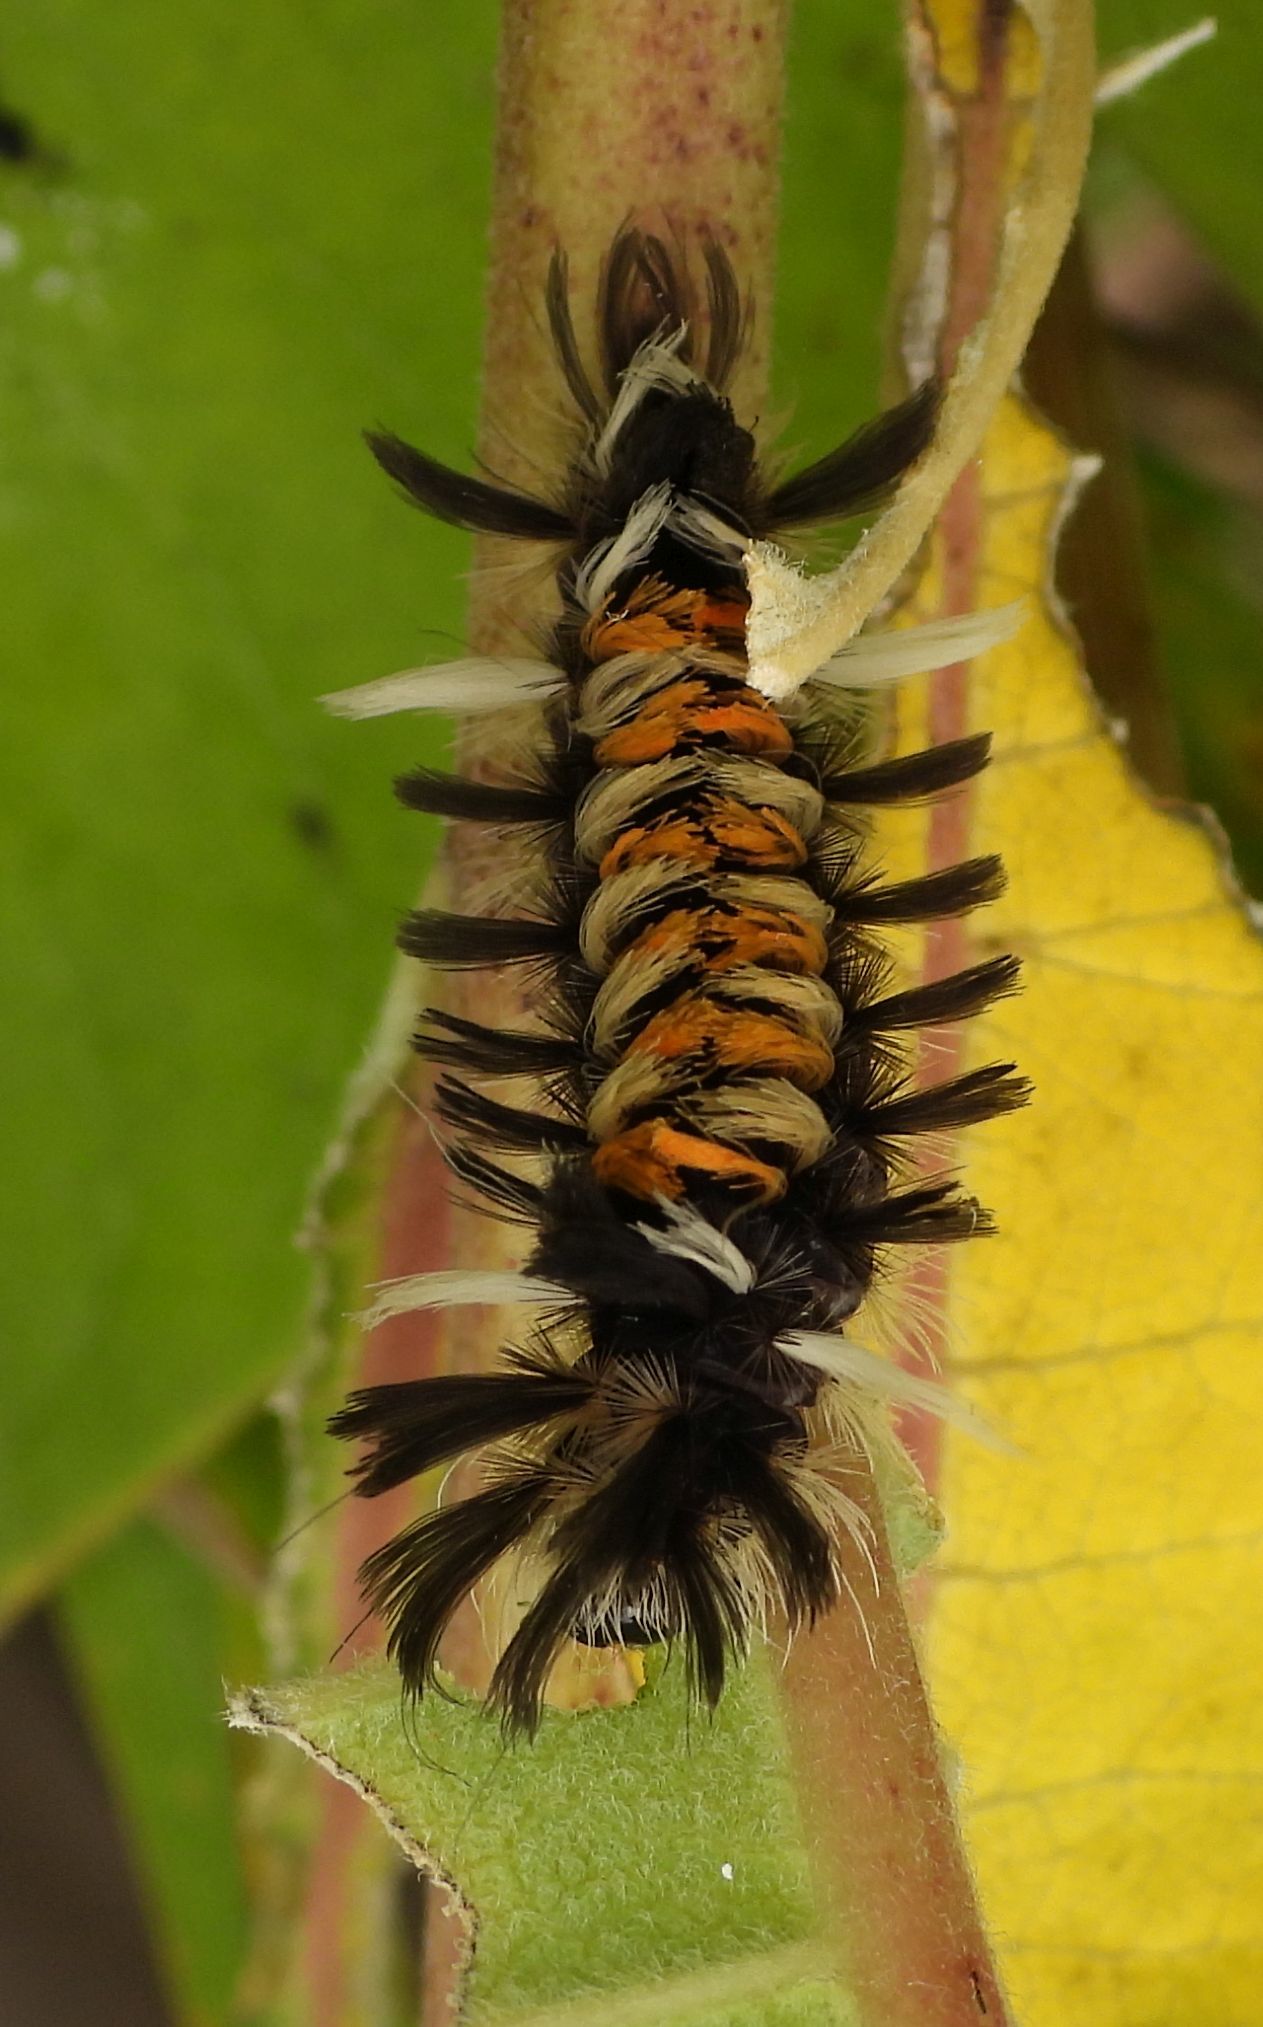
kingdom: Animalia
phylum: Arthropoda
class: Insecta
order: Lepidoptera
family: Erebidae
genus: Euchaetes
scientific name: Euchaetes egle
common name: Milkweed tussock moth
